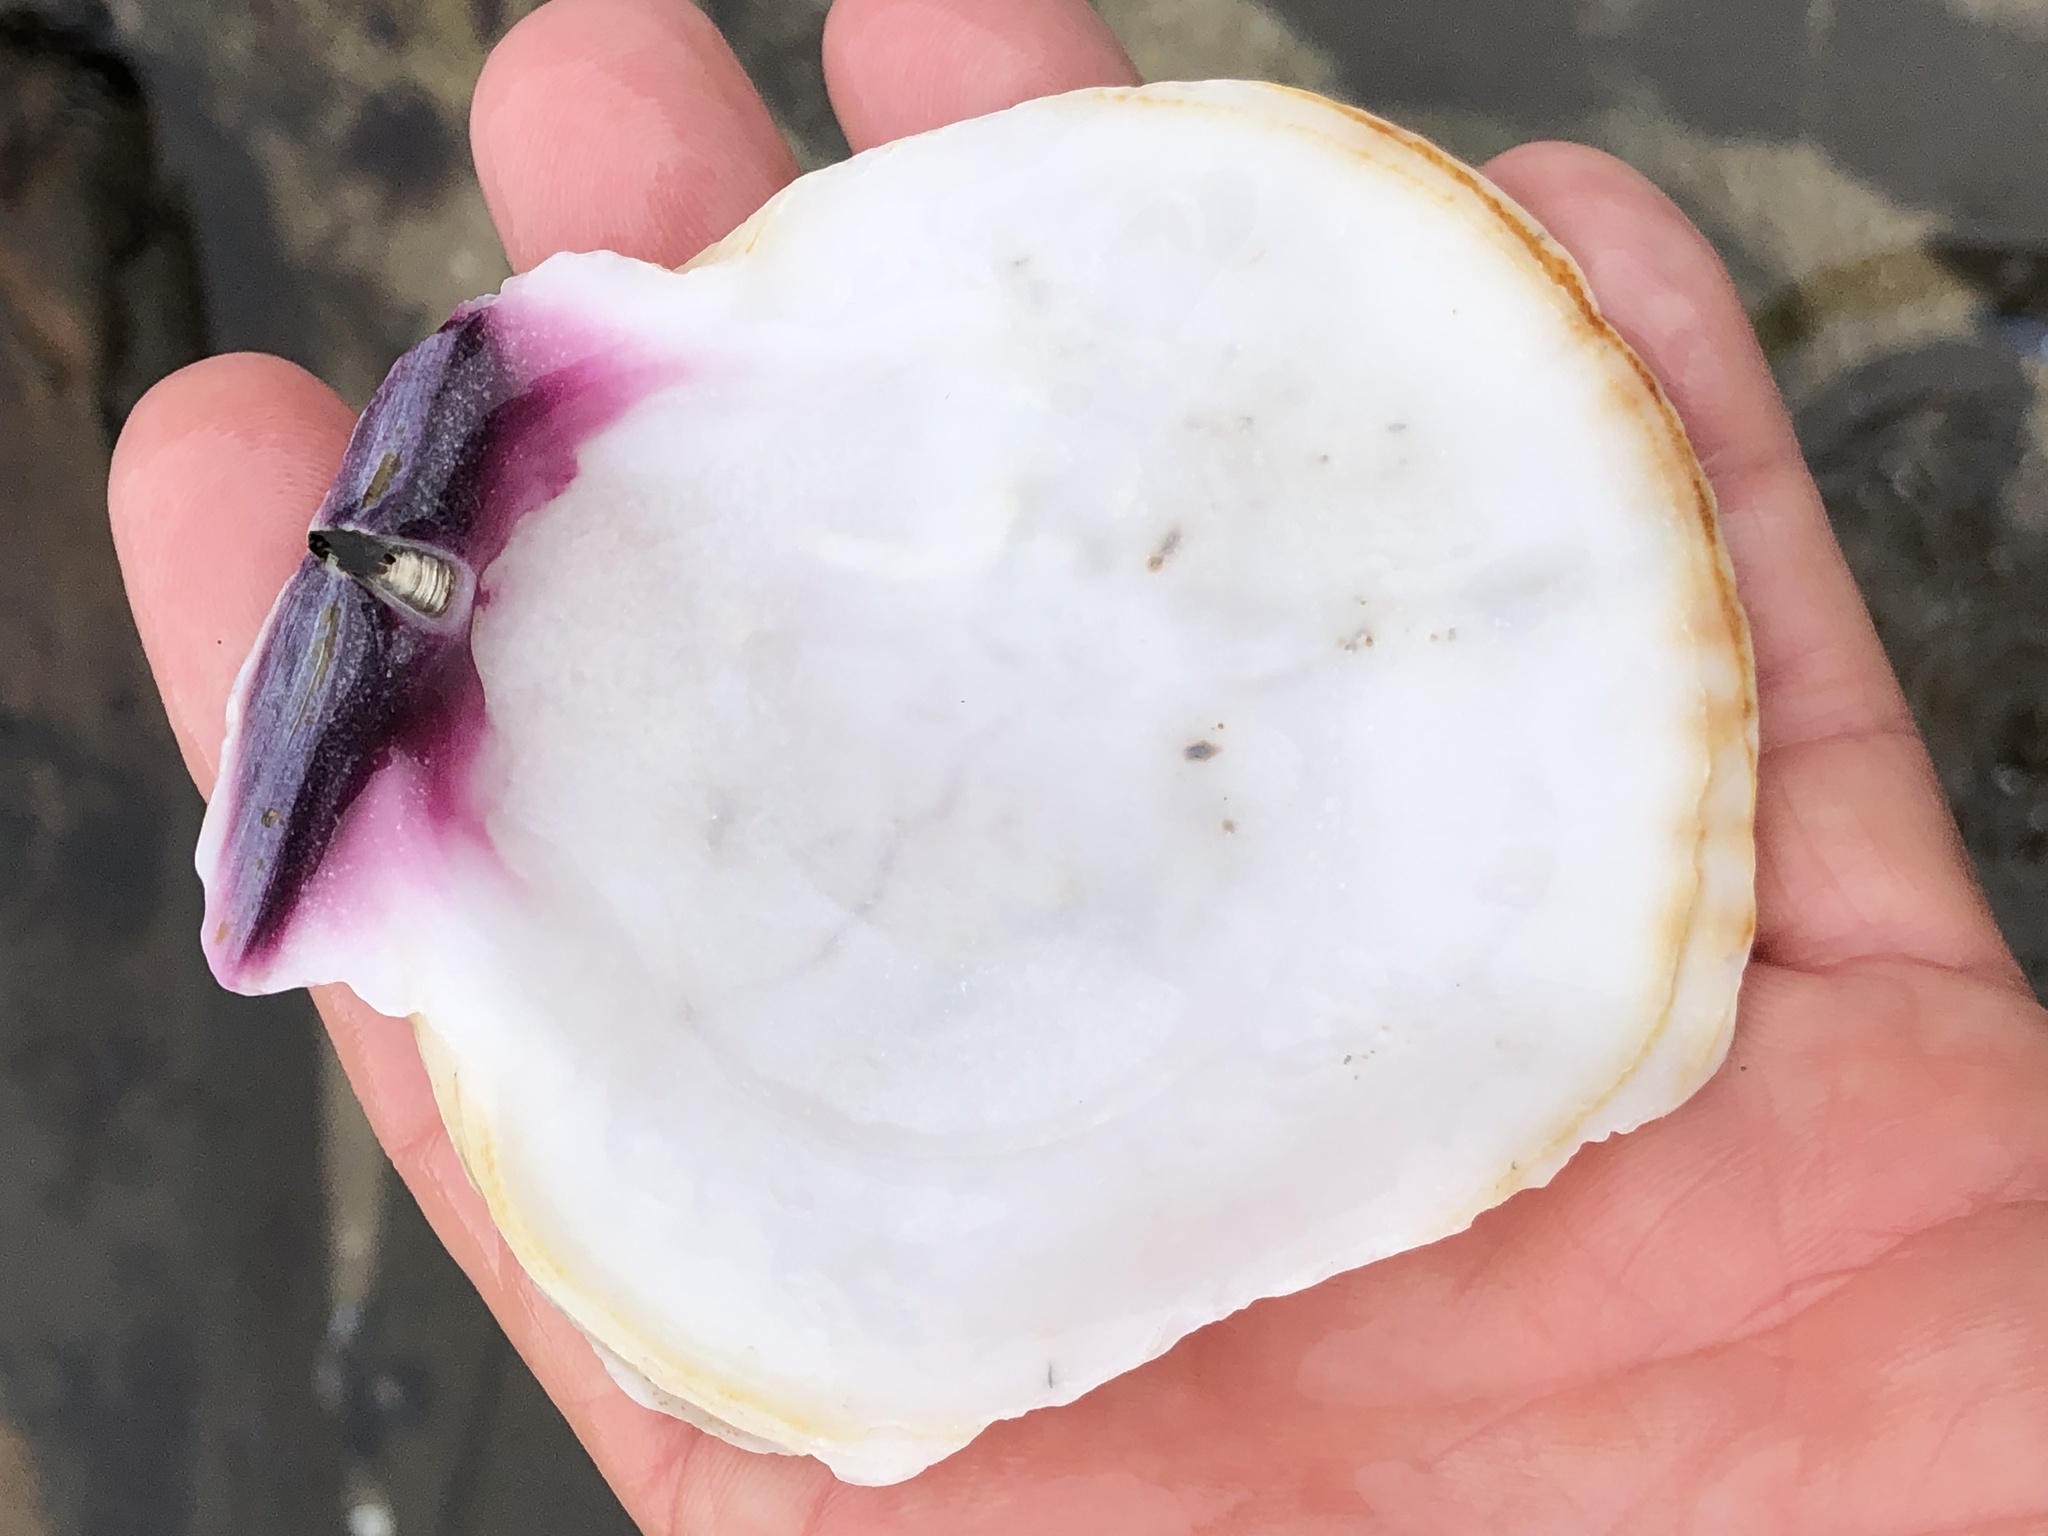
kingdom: Animalia
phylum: Mollusca
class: Bivalvia
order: Pectinida
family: Pectinidae
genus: Crassadoma
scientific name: Crassadoma gigantea
